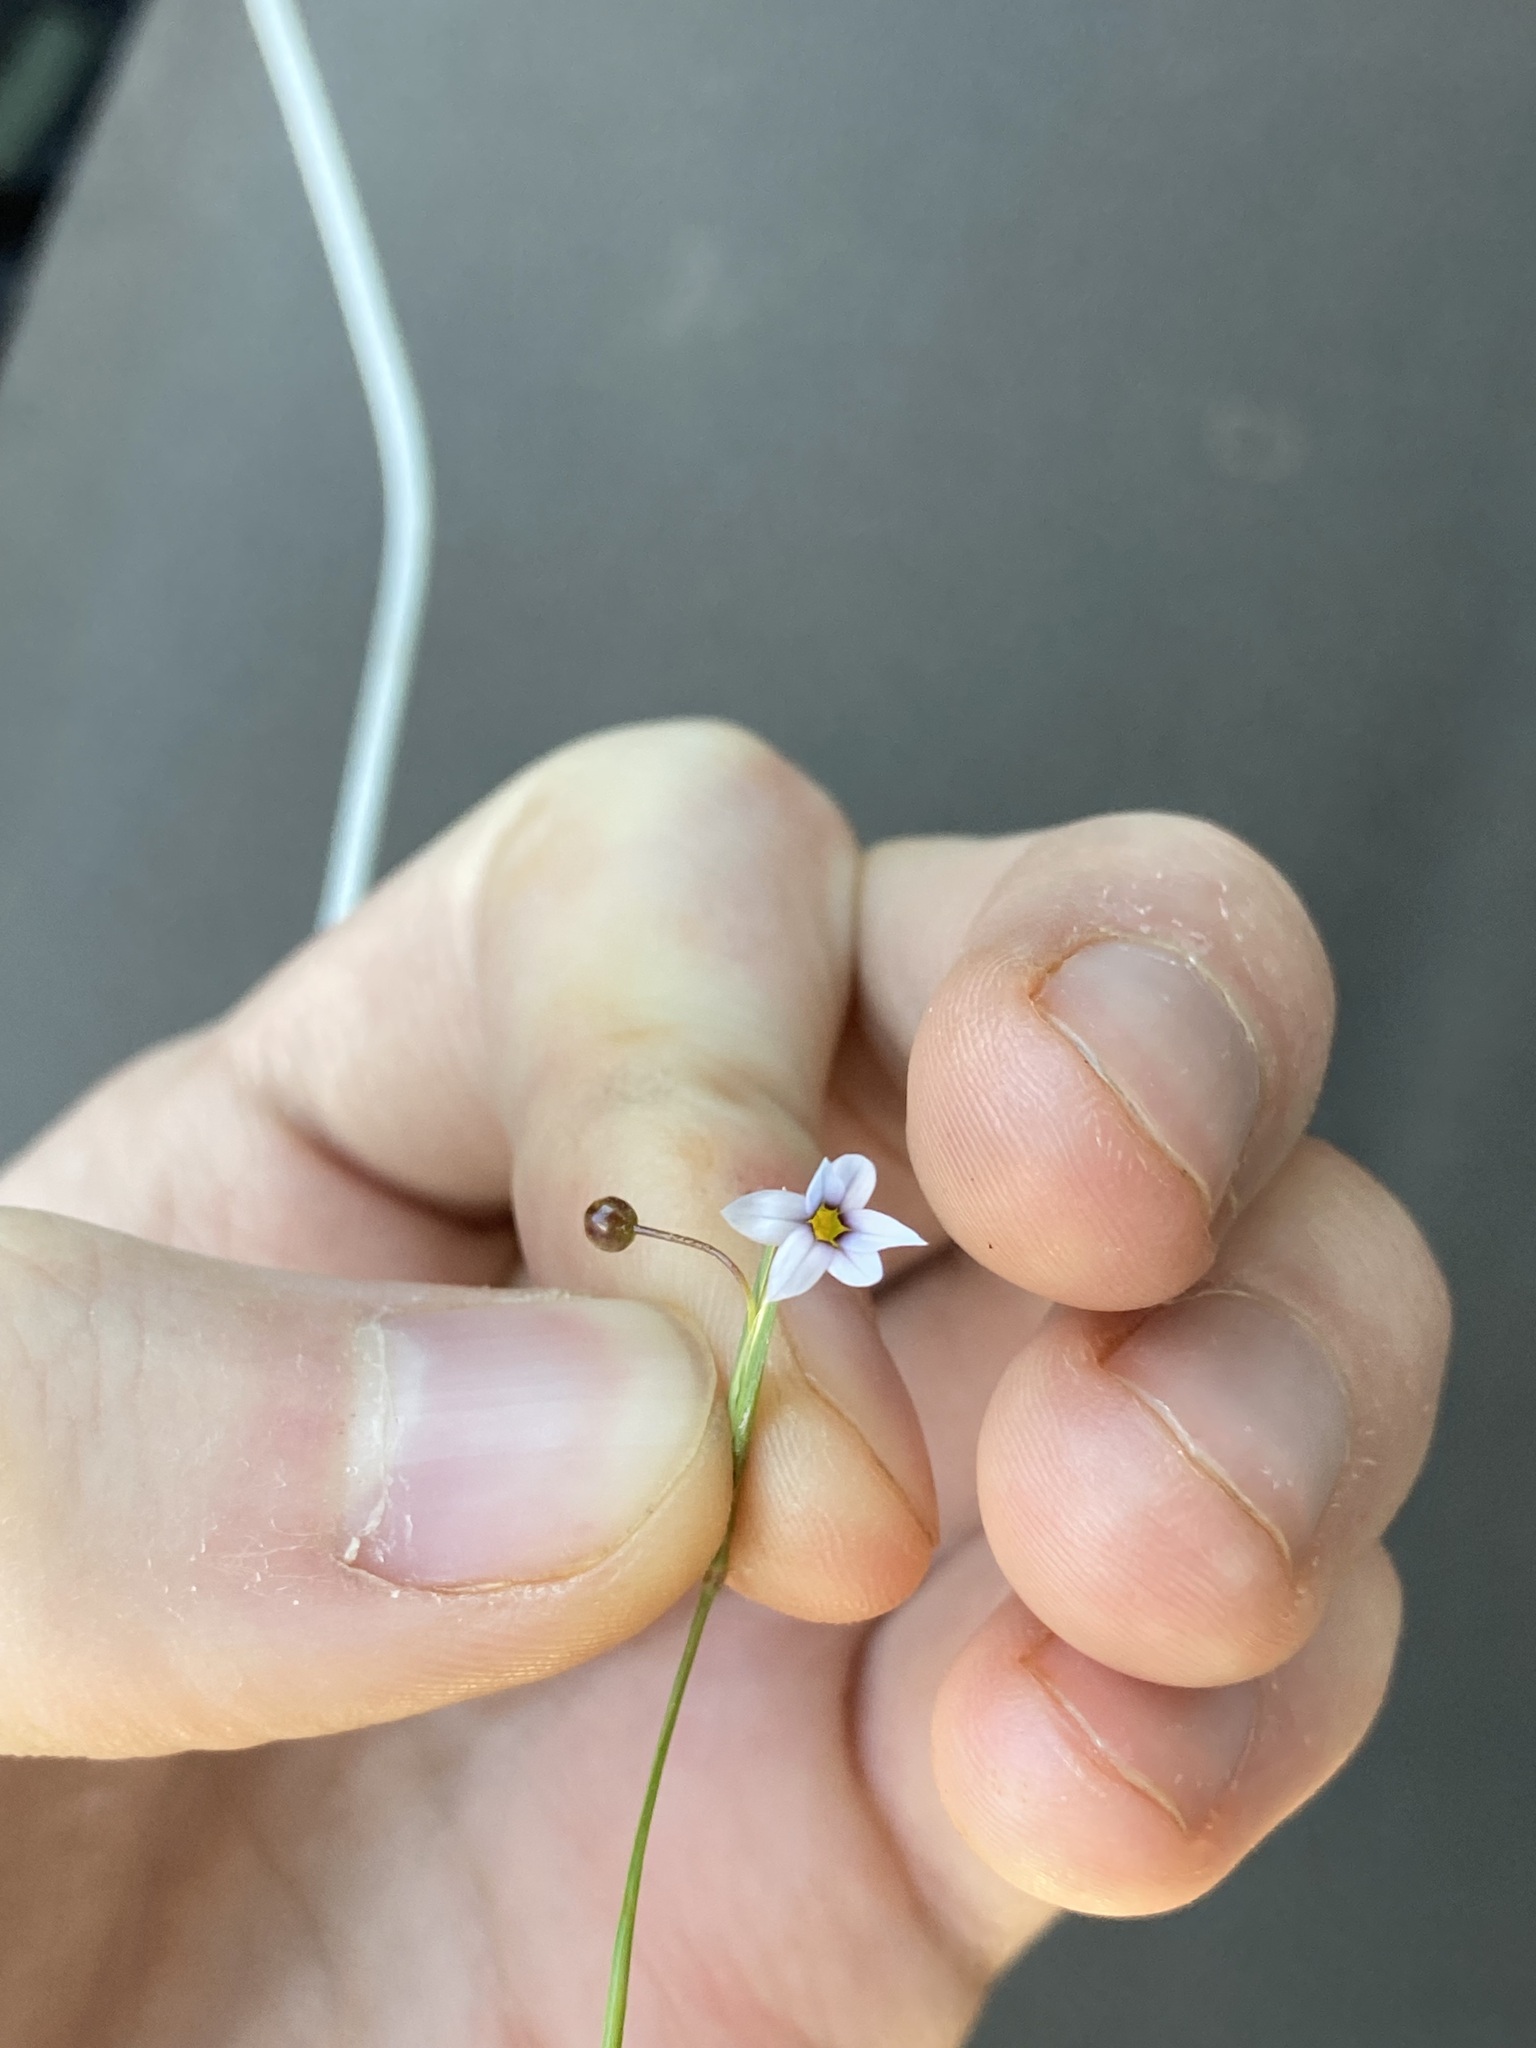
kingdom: Plantae
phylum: Tracheophyta
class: Liliopsida
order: Asparagales
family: Iridaceae
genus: Sisyrinchium
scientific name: Sisyrinchium micranthum
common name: Bermuda pigroot
